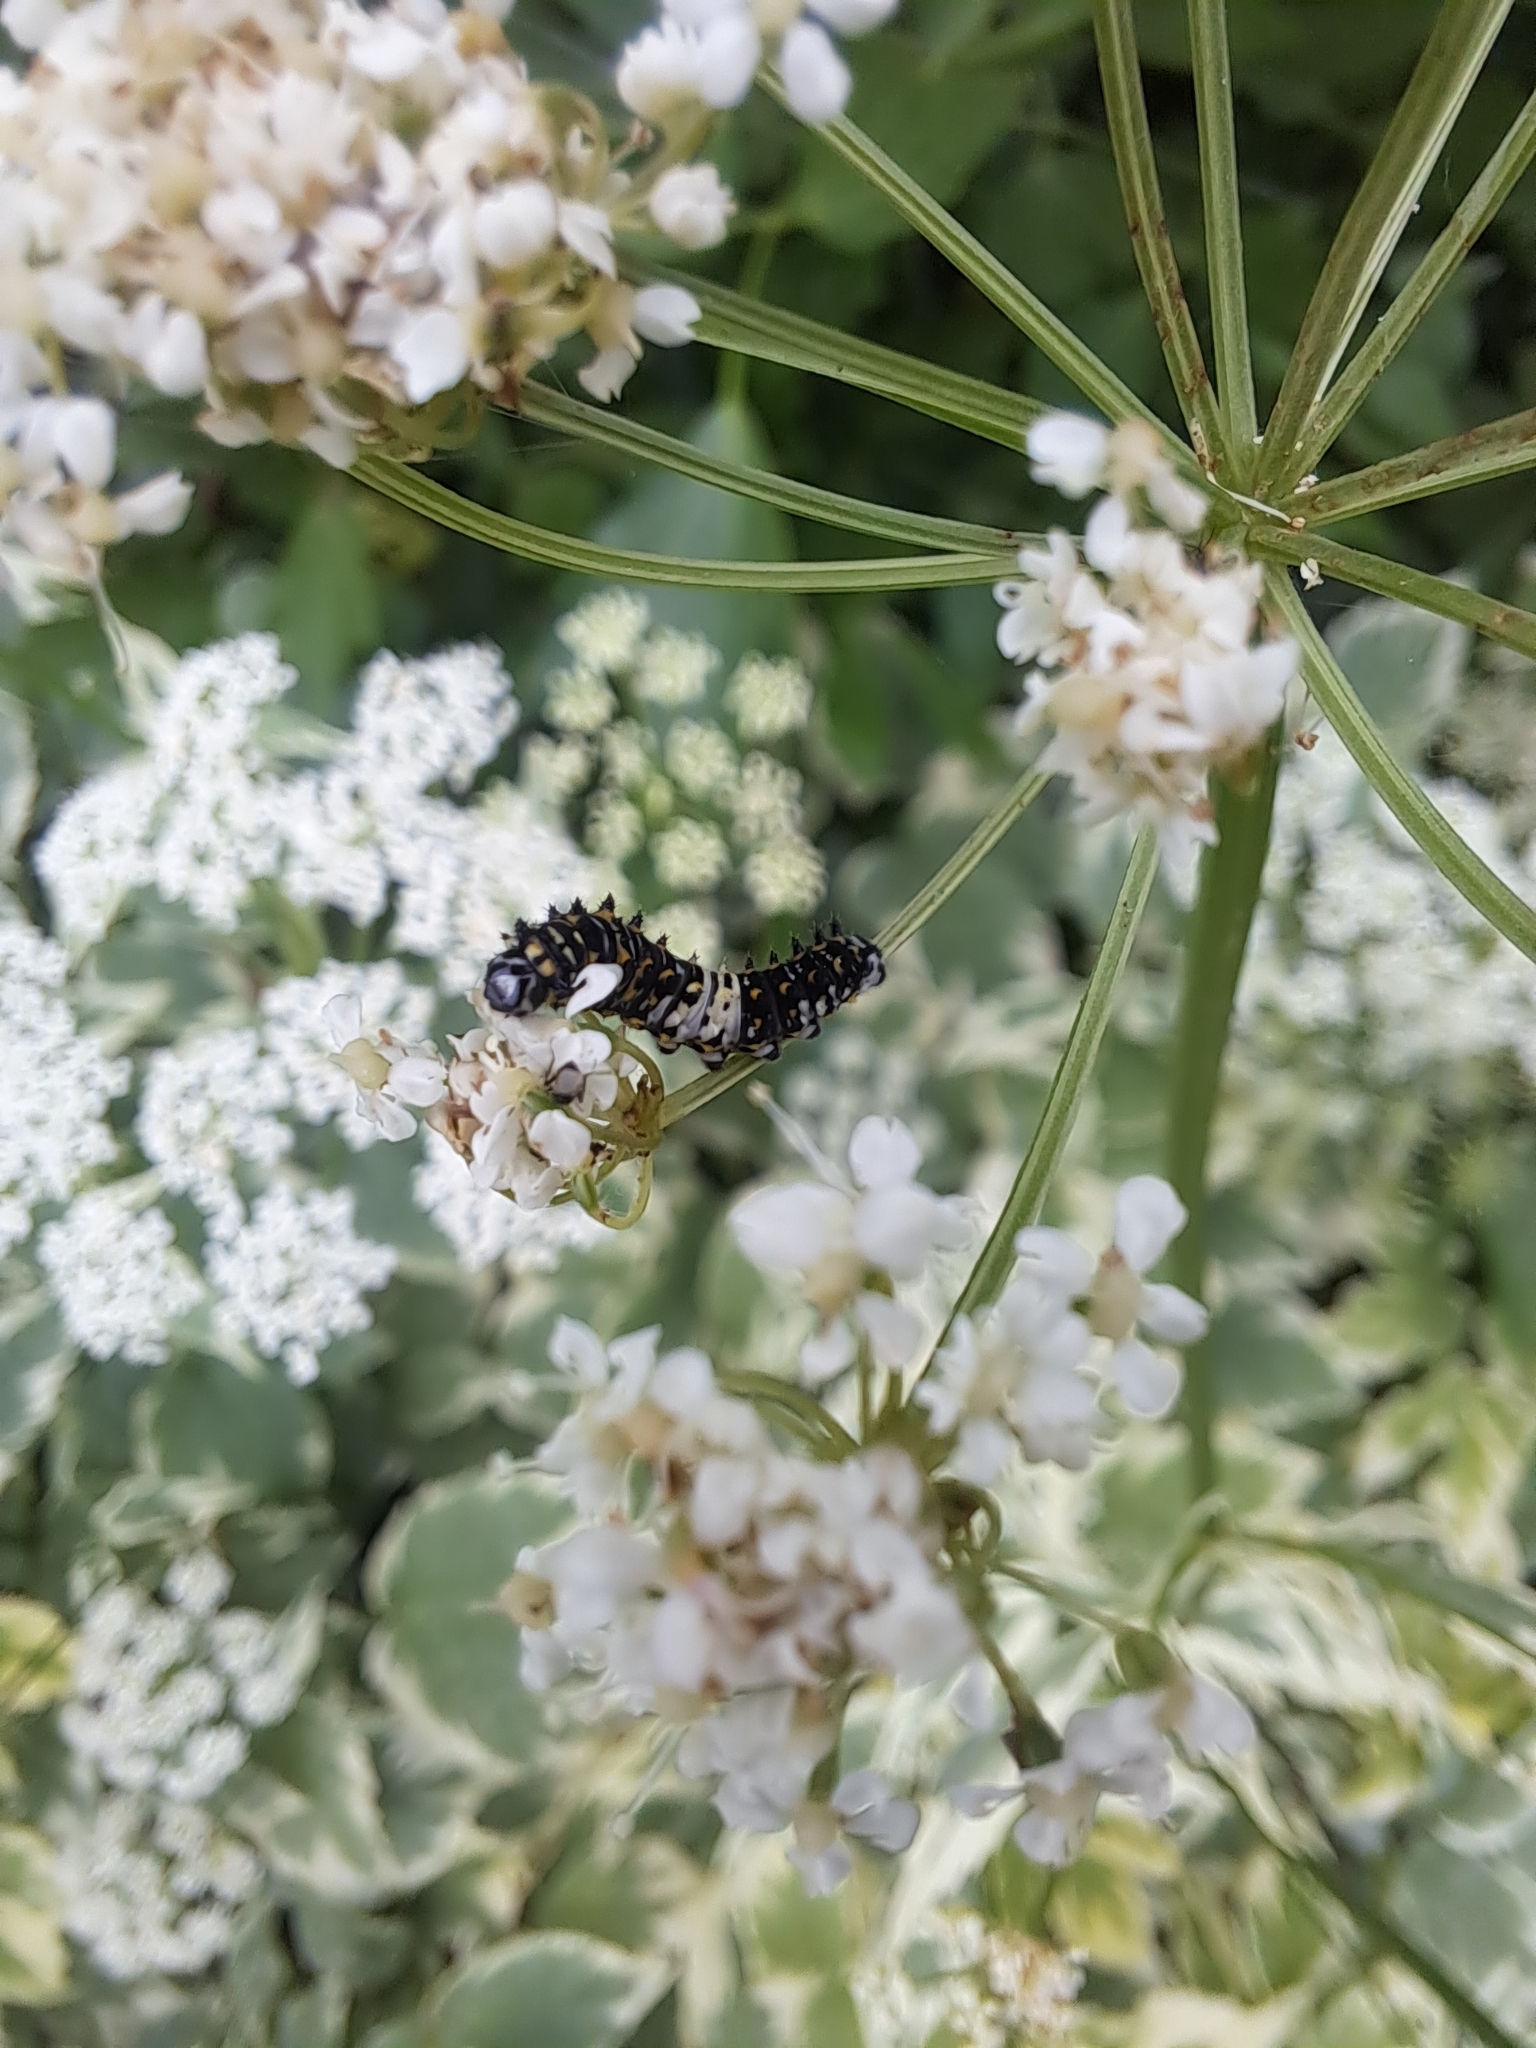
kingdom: Animalia
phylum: Arthropoda
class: Insecta
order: Lepidoptera
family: Papilionidae
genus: Papilio
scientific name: Papilio polyxenes
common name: Black swallowtail
